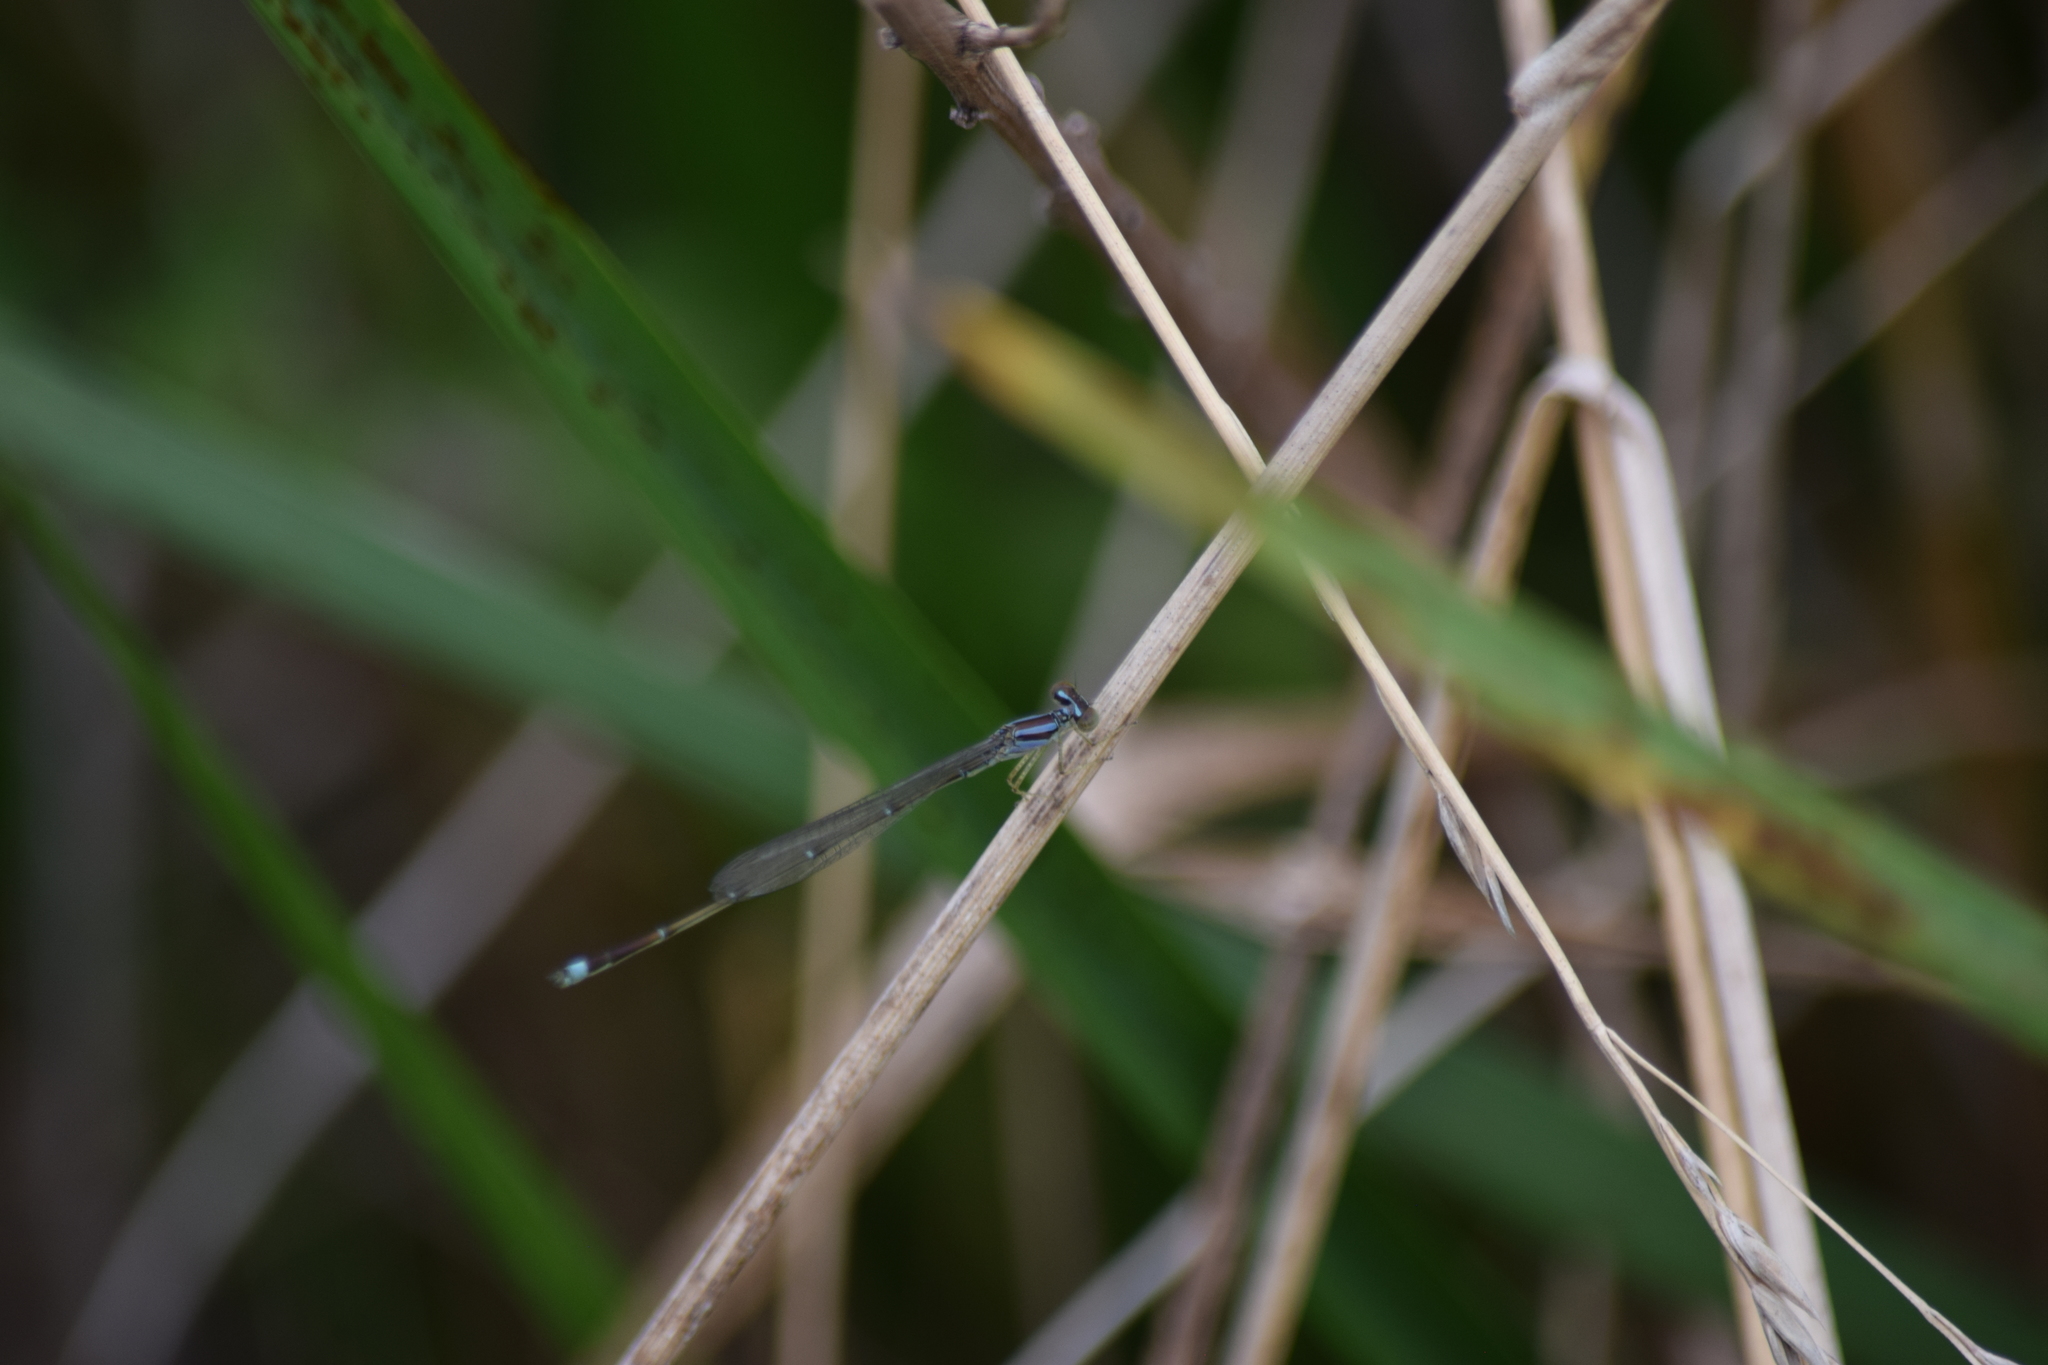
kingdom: Animalia
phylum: Arthropoda
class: Insecta
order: Odonata
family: Coenagrionidae
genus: Enallagma
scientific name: Enallagma signatum
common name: Orange bluet
